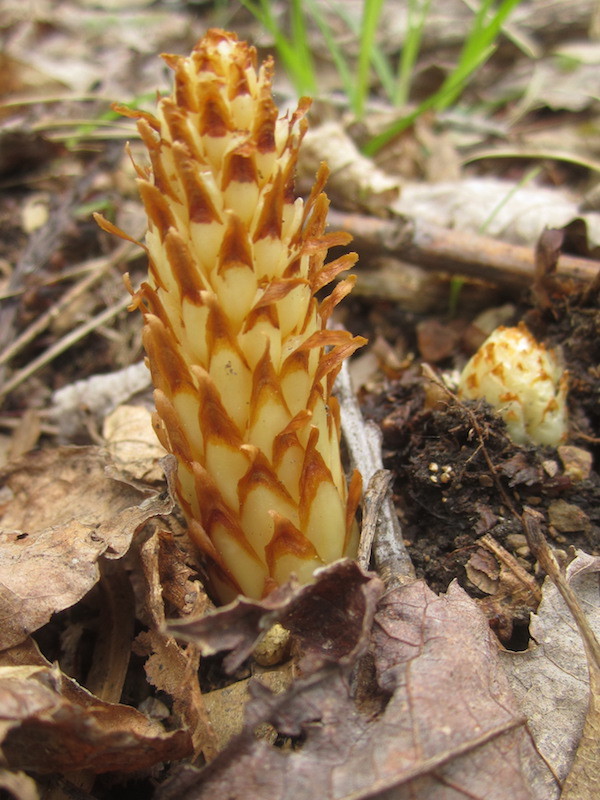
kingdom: Plantae
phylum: Tracheophyta
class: Magnoliopsida
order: Lamiales
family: Orobanchaceae
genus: Conopholis
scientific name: Conopholis americana
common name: American cancer-root
